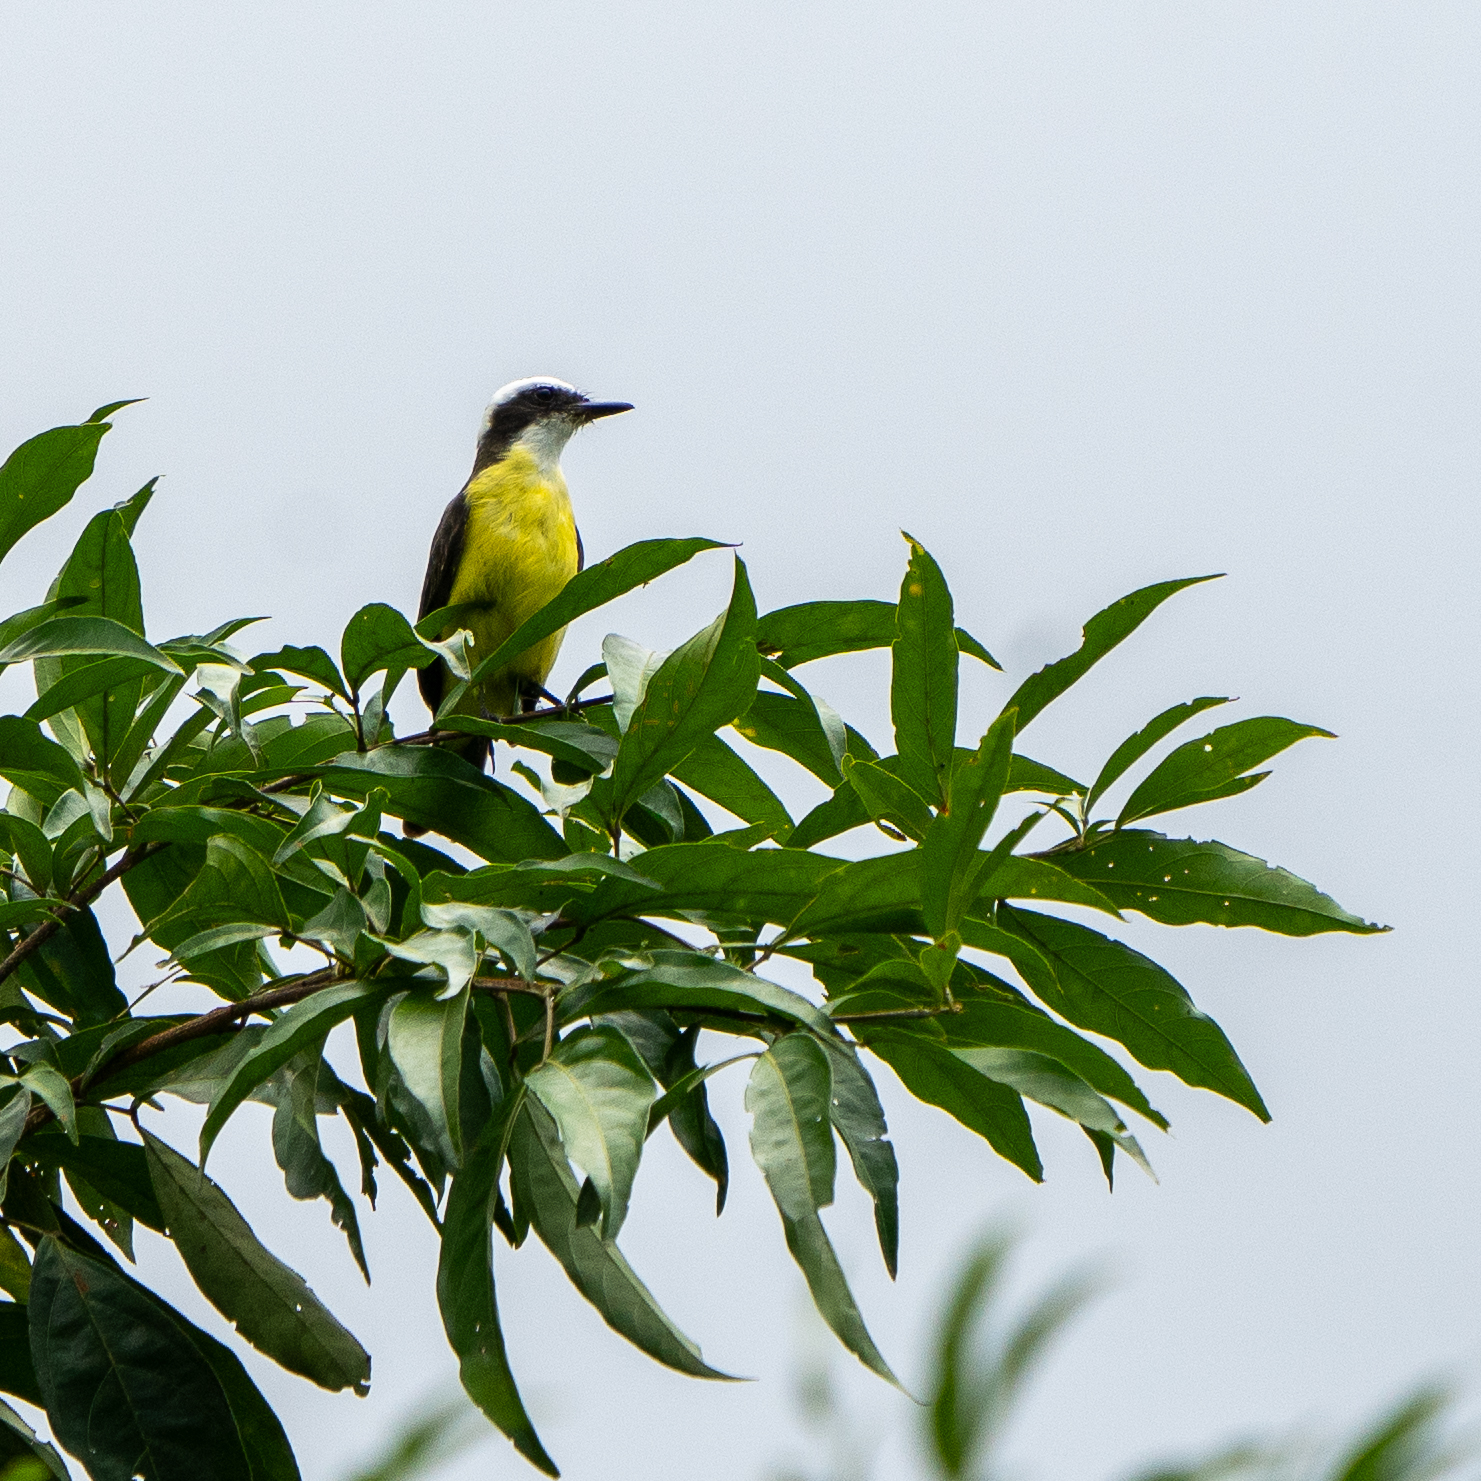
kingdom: Animalia
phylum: Chordata
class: Aves
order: Passeriformes
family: Tyrannidae
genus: Conopias
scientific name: Conopias albovittatus
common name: White-ringed flycatcher
